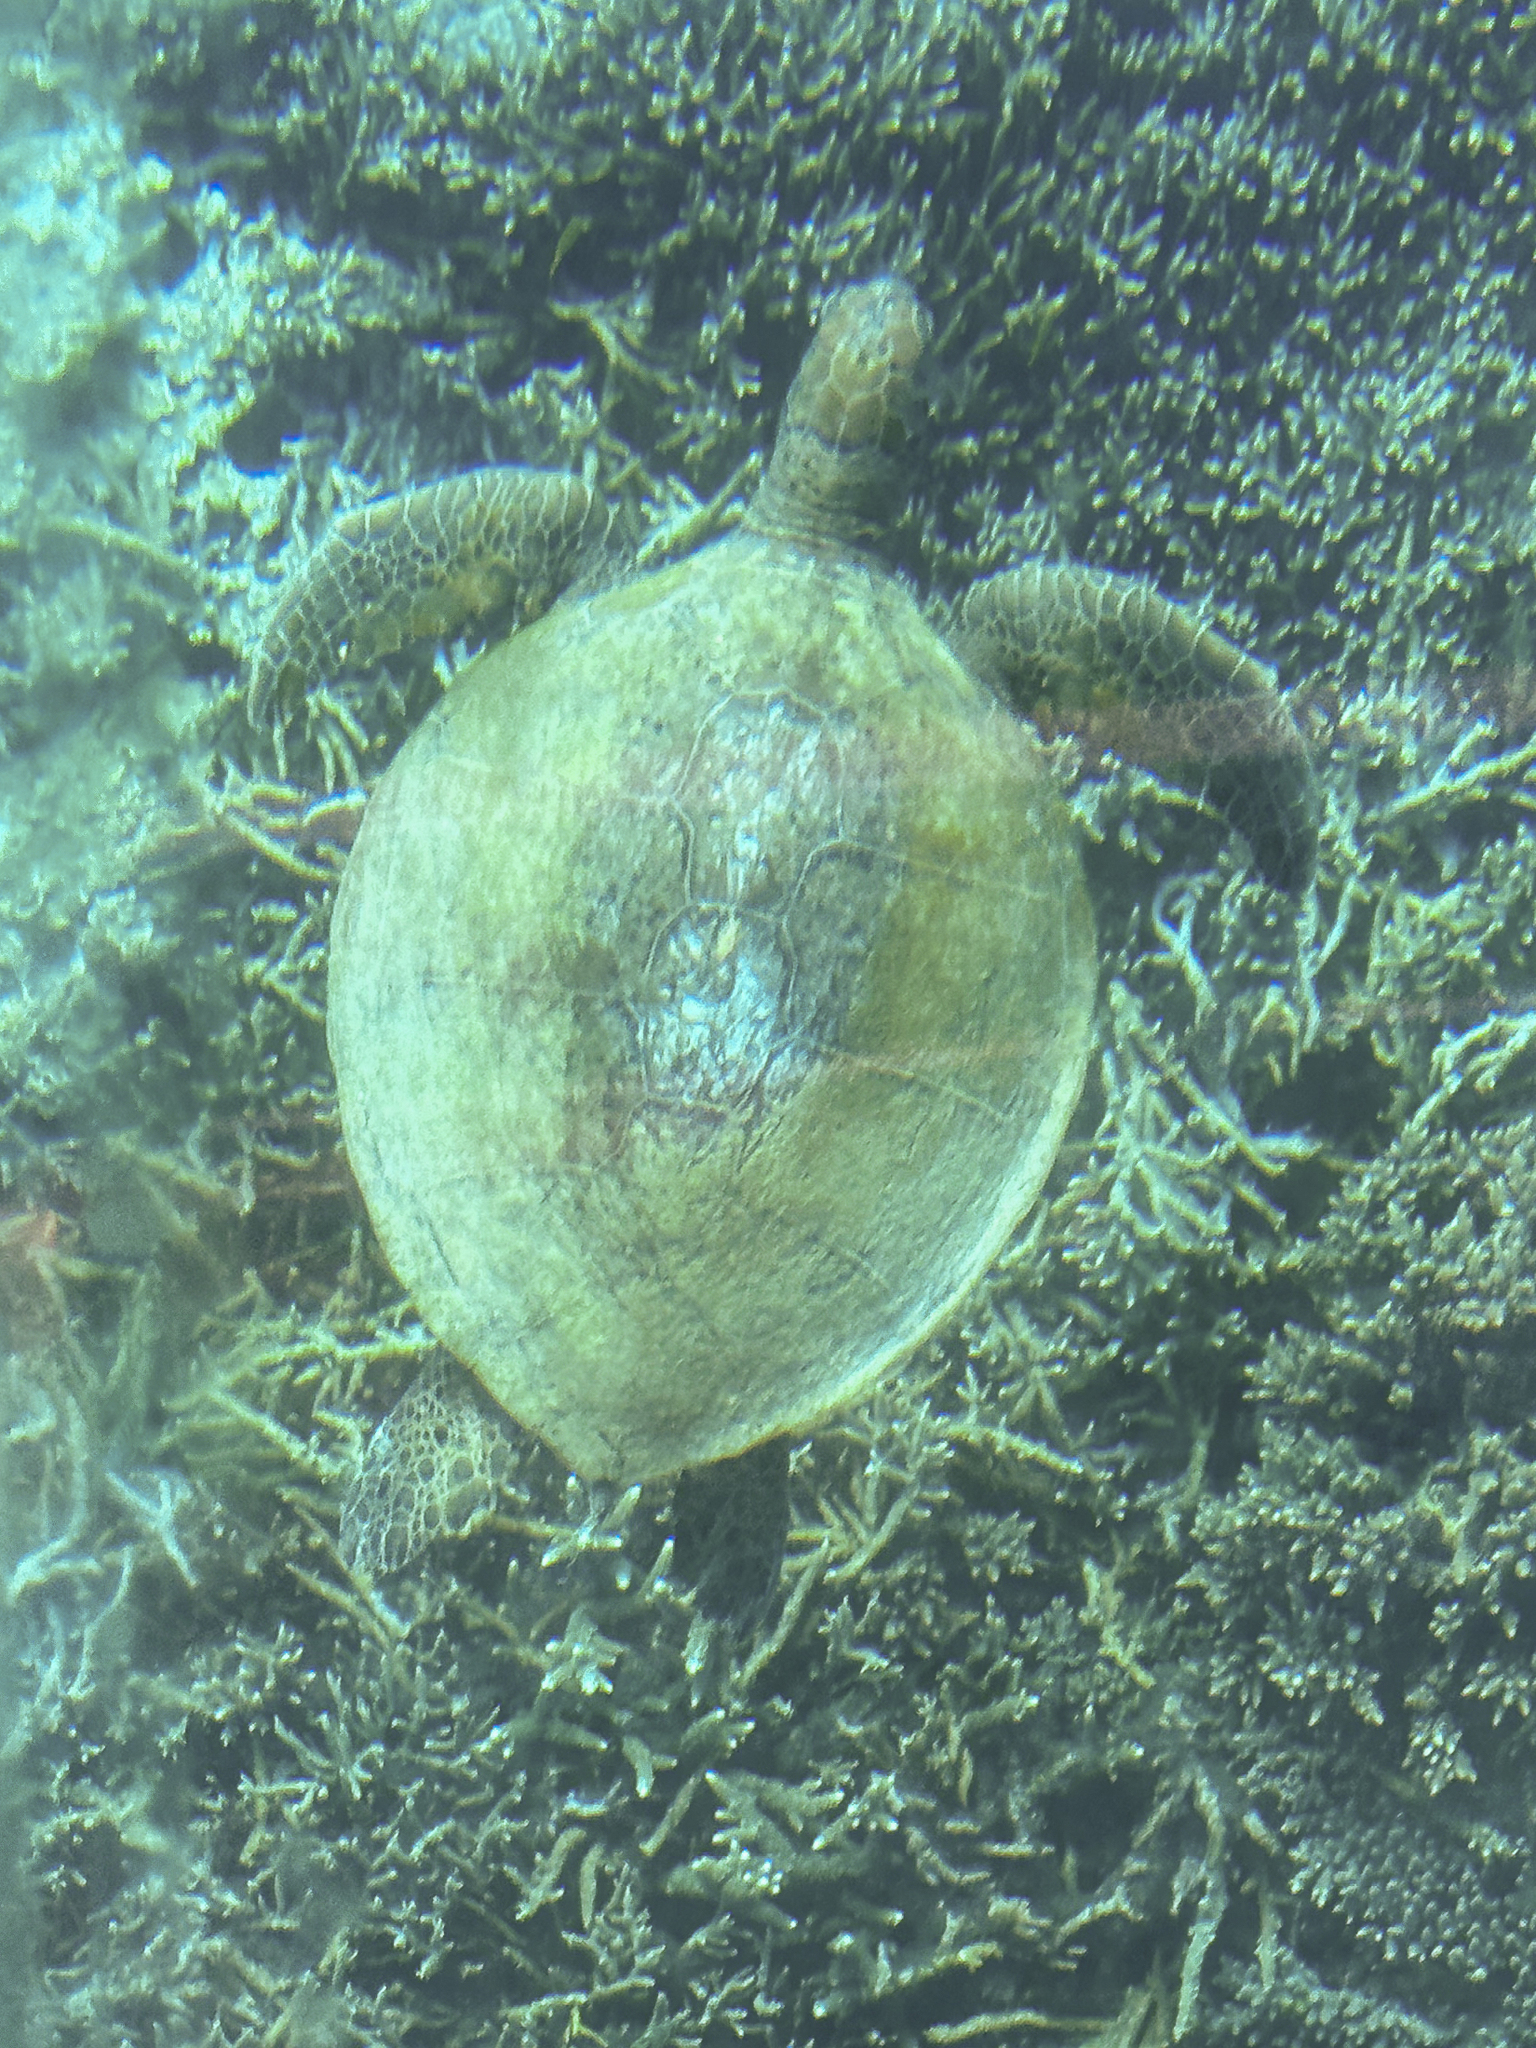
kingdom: Animalia
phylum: Chordata
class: Testudines
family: Cheloniidae
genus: Chelonia
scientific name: Chelonia mydas
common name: Green turtle
